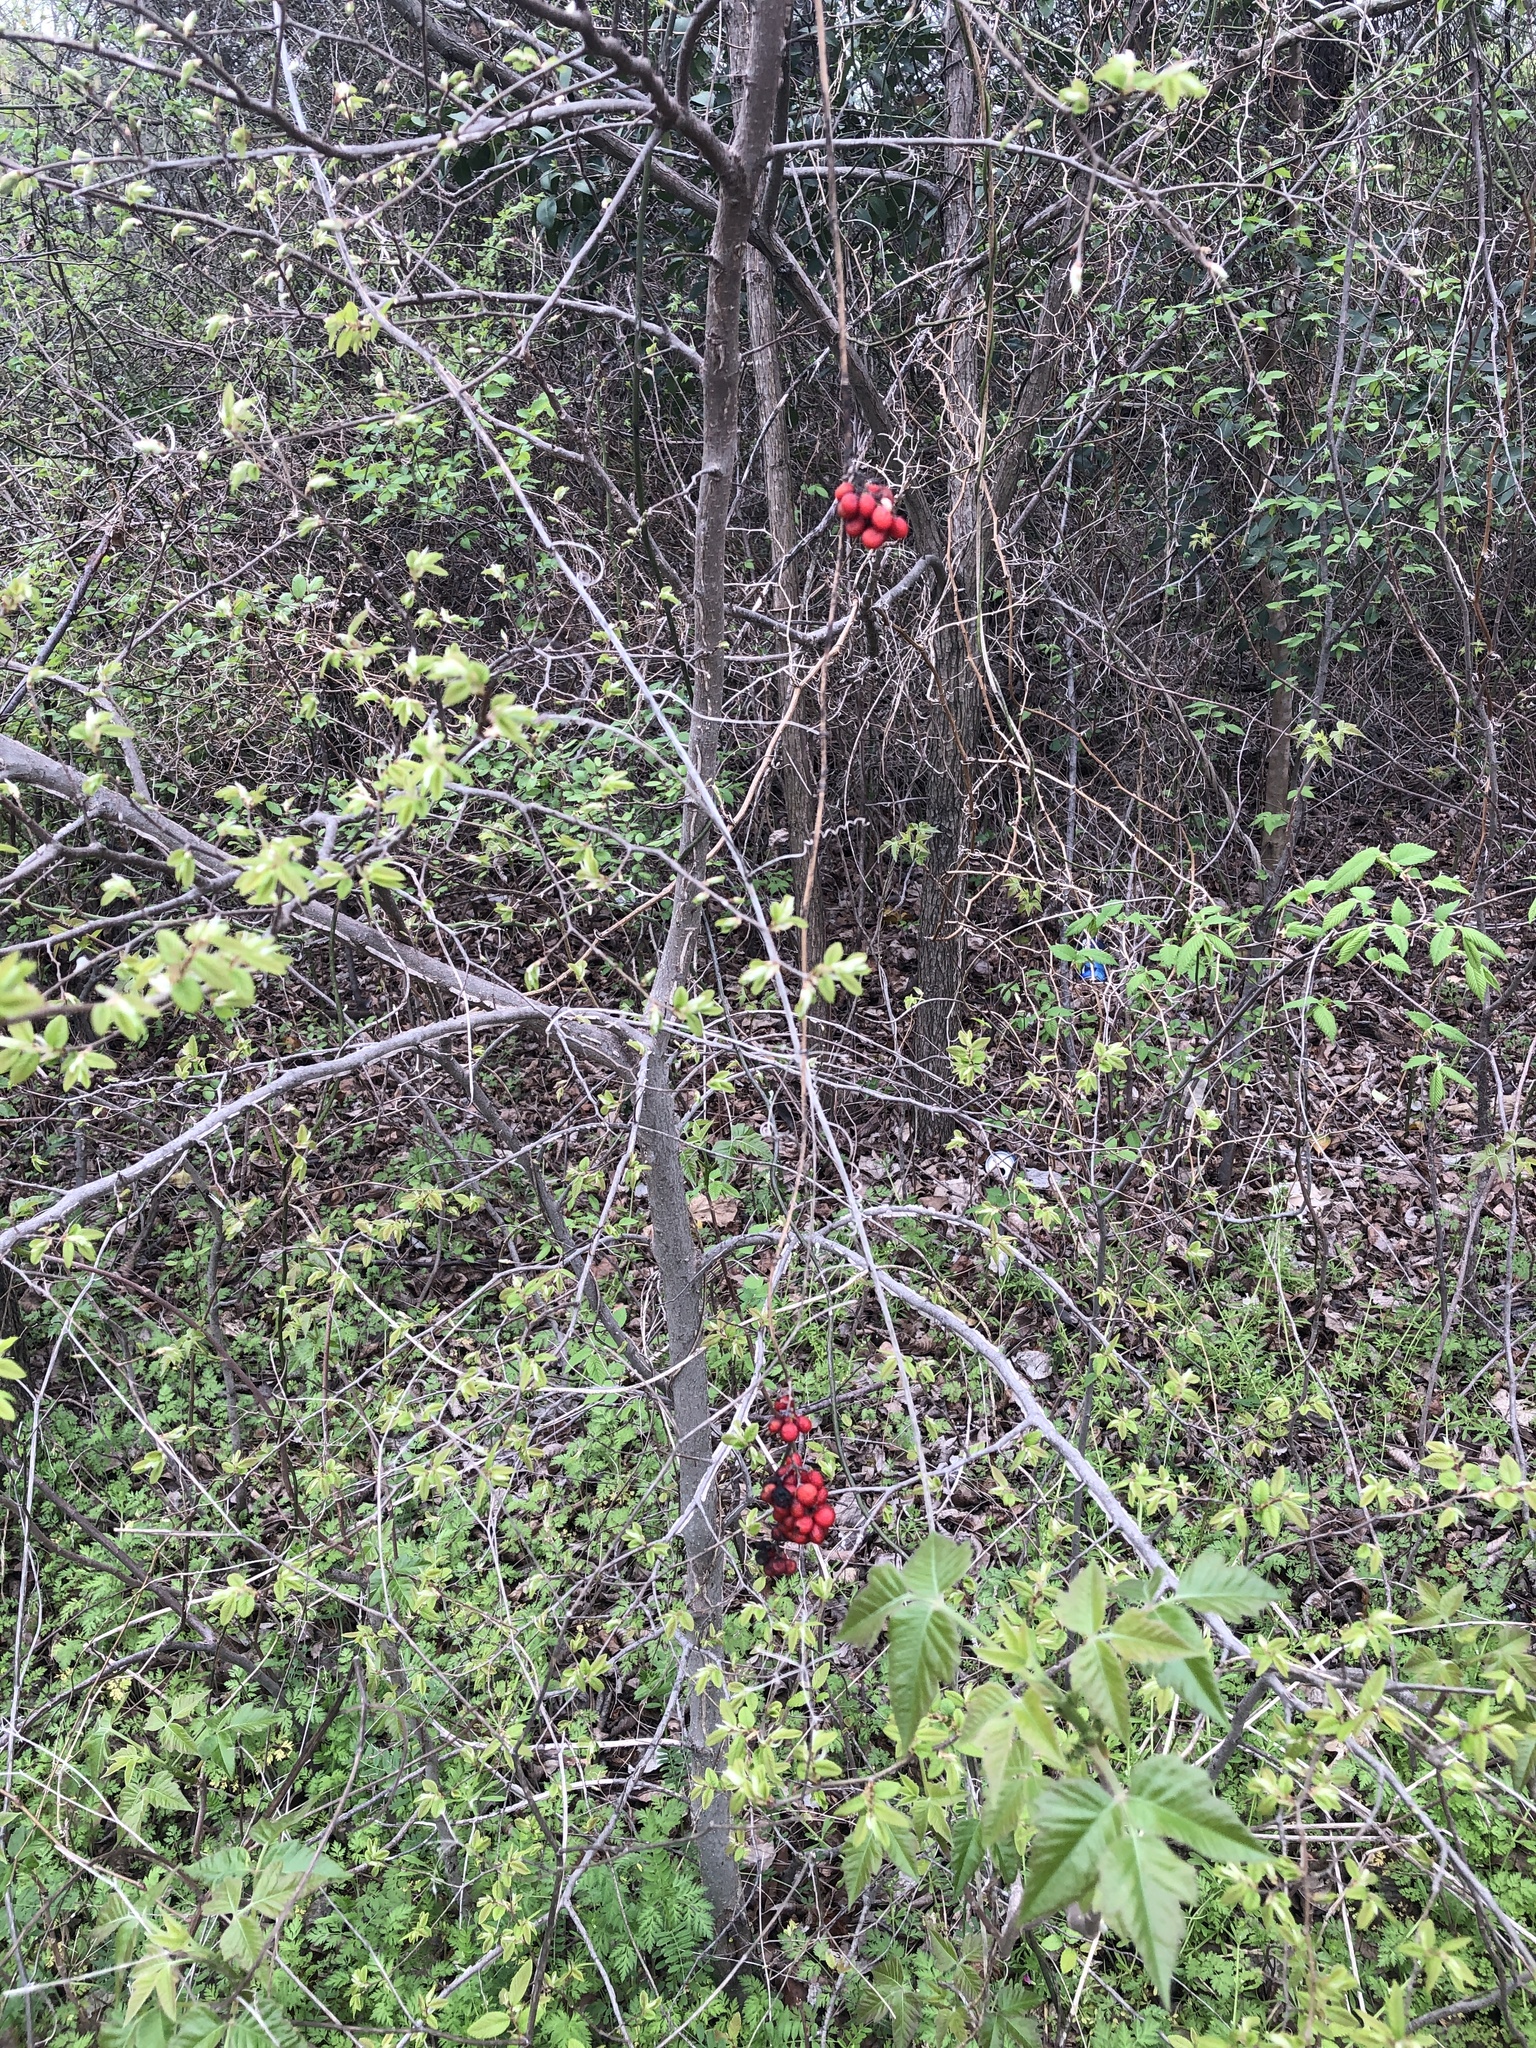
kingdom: Plantae
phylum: Tracheophyta
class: Magnoliopsida
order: Ranunculales
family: Menispermaceae
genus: Cocculus
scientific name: Cocculus carolinus
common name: Carolina moonseed
